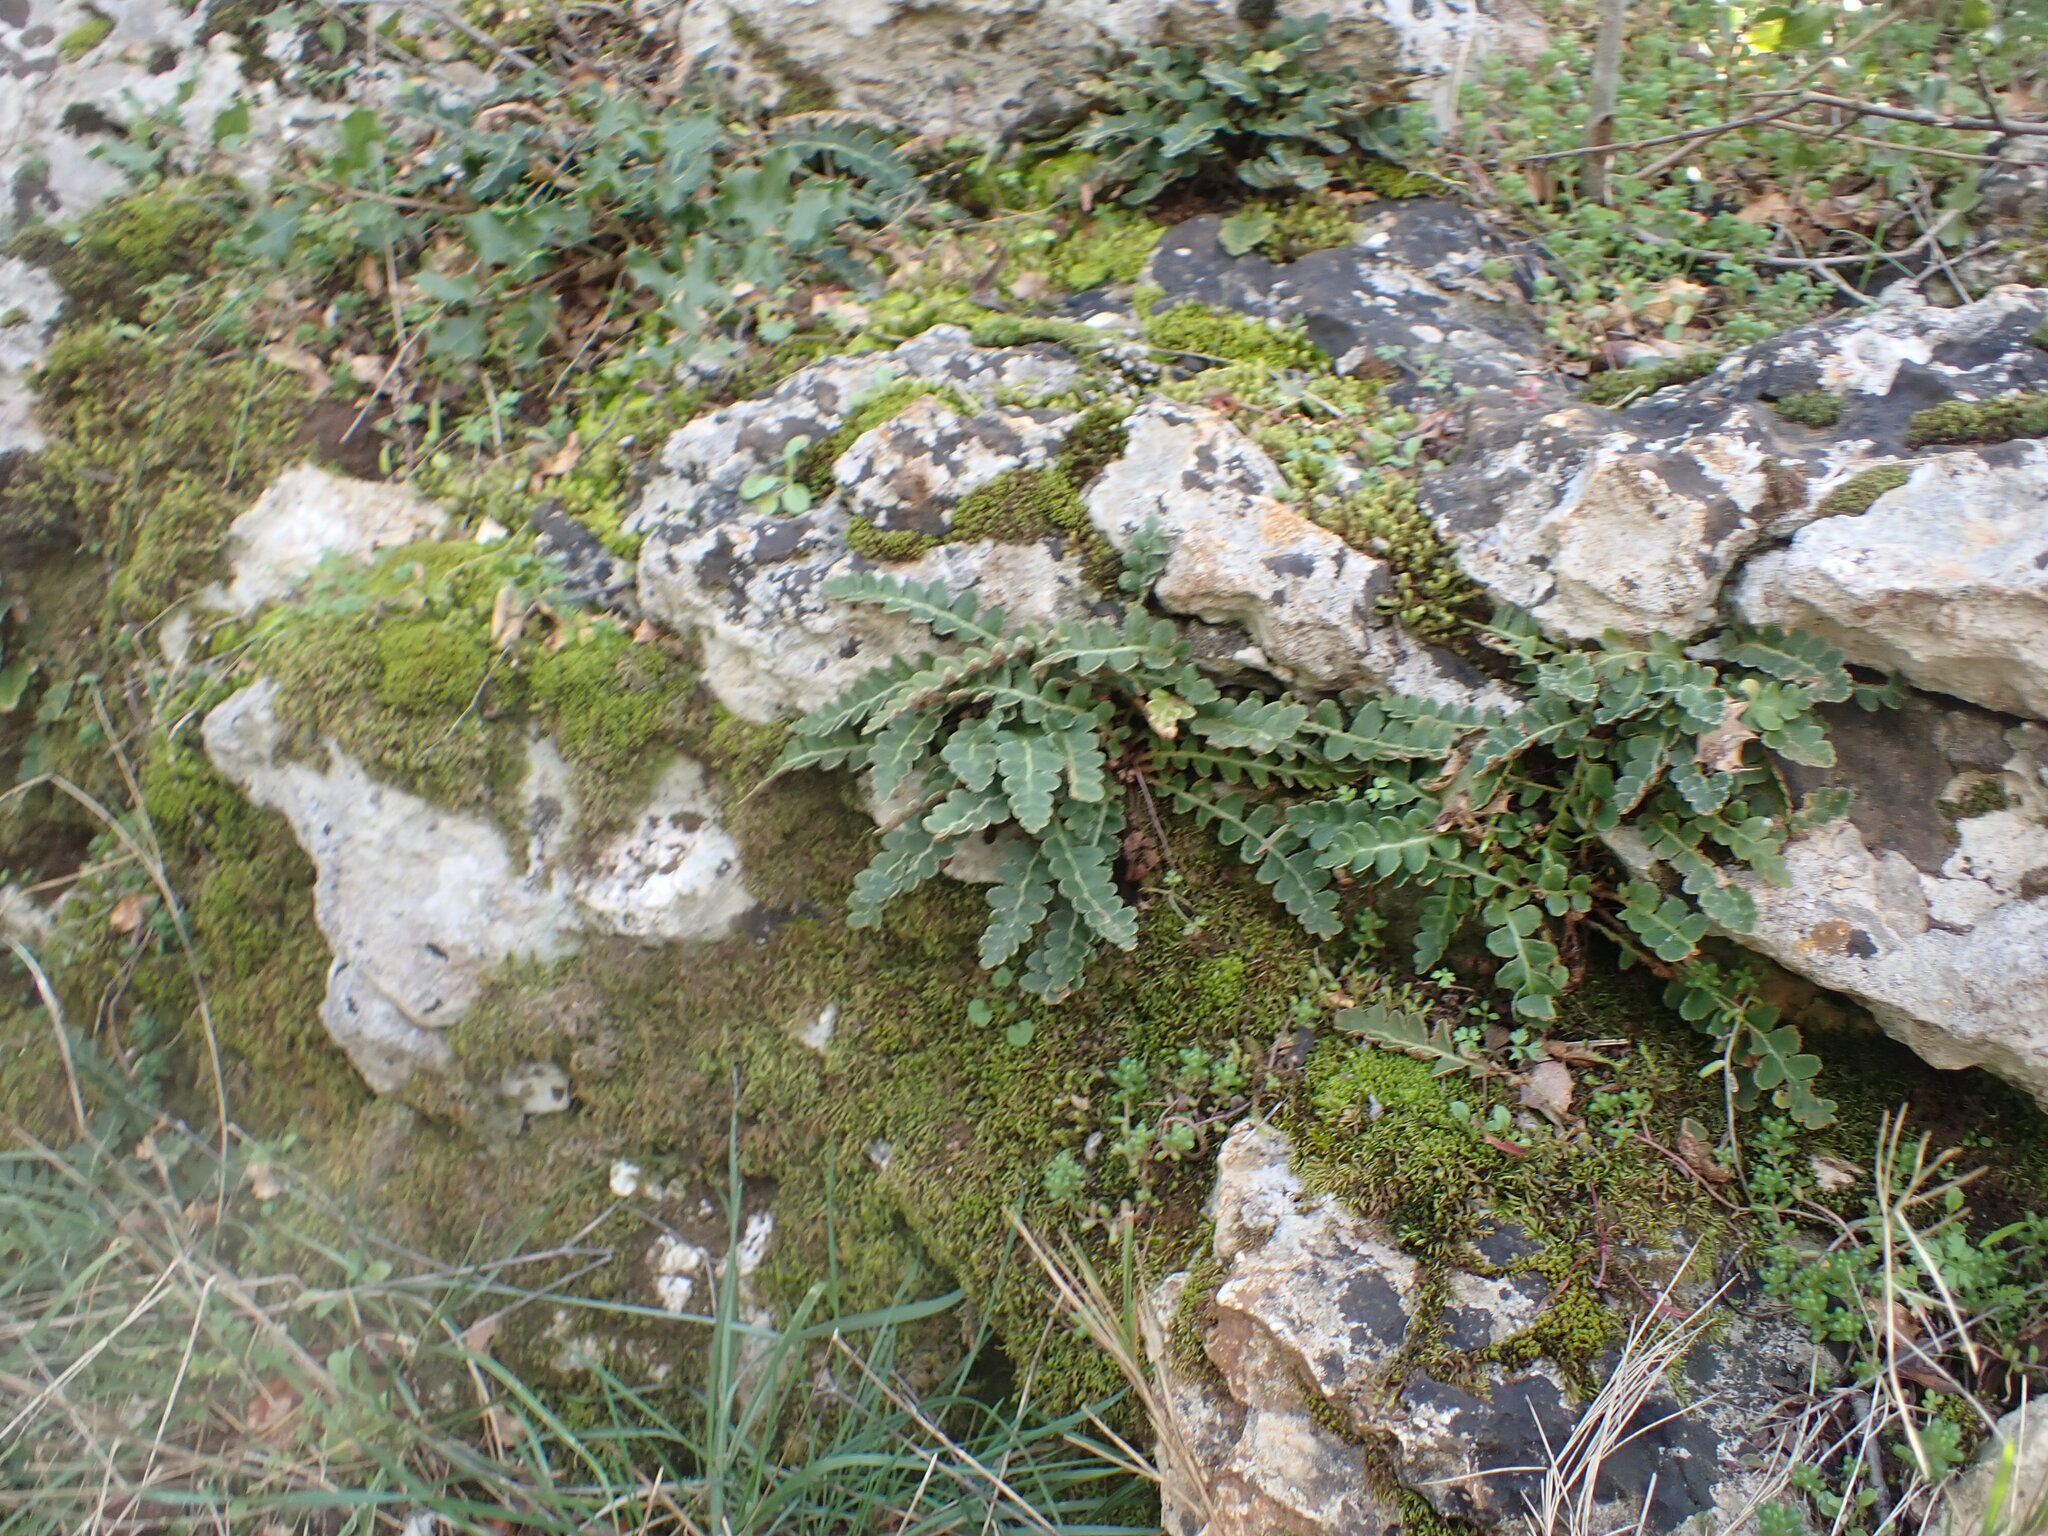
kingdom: Plantae
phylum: Tracheophyta
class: Polypodiopsida
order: Polypodiales
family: Aspleniaceae
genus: Asplenium
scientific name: Asplenium ceterach
